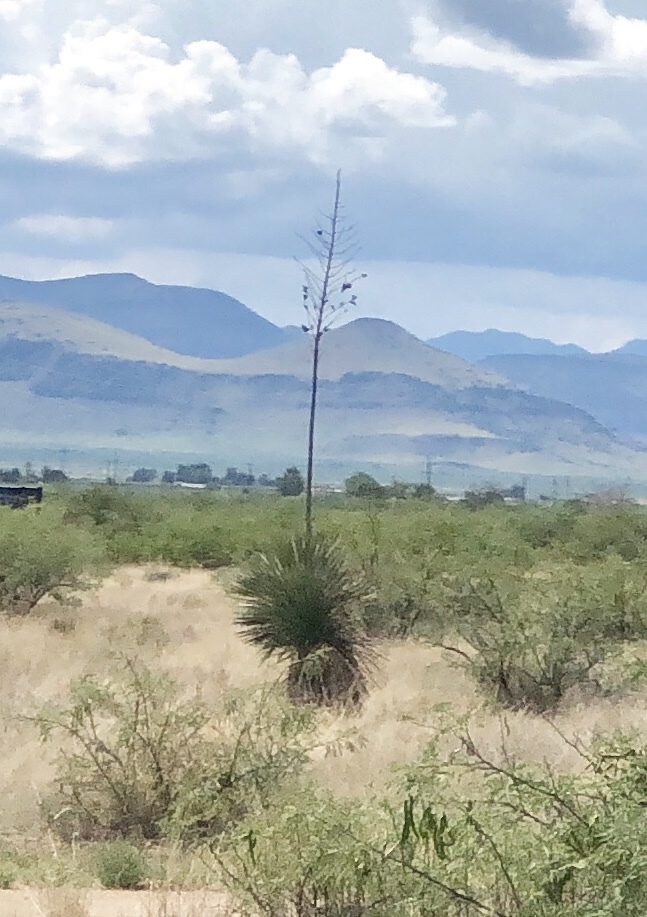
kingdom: Plantae
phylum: Tracheophyta
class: Liliopsida
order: Asparagales
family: Asparagaceae
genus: Yucca
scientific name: Yucca elata
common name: Palmella
